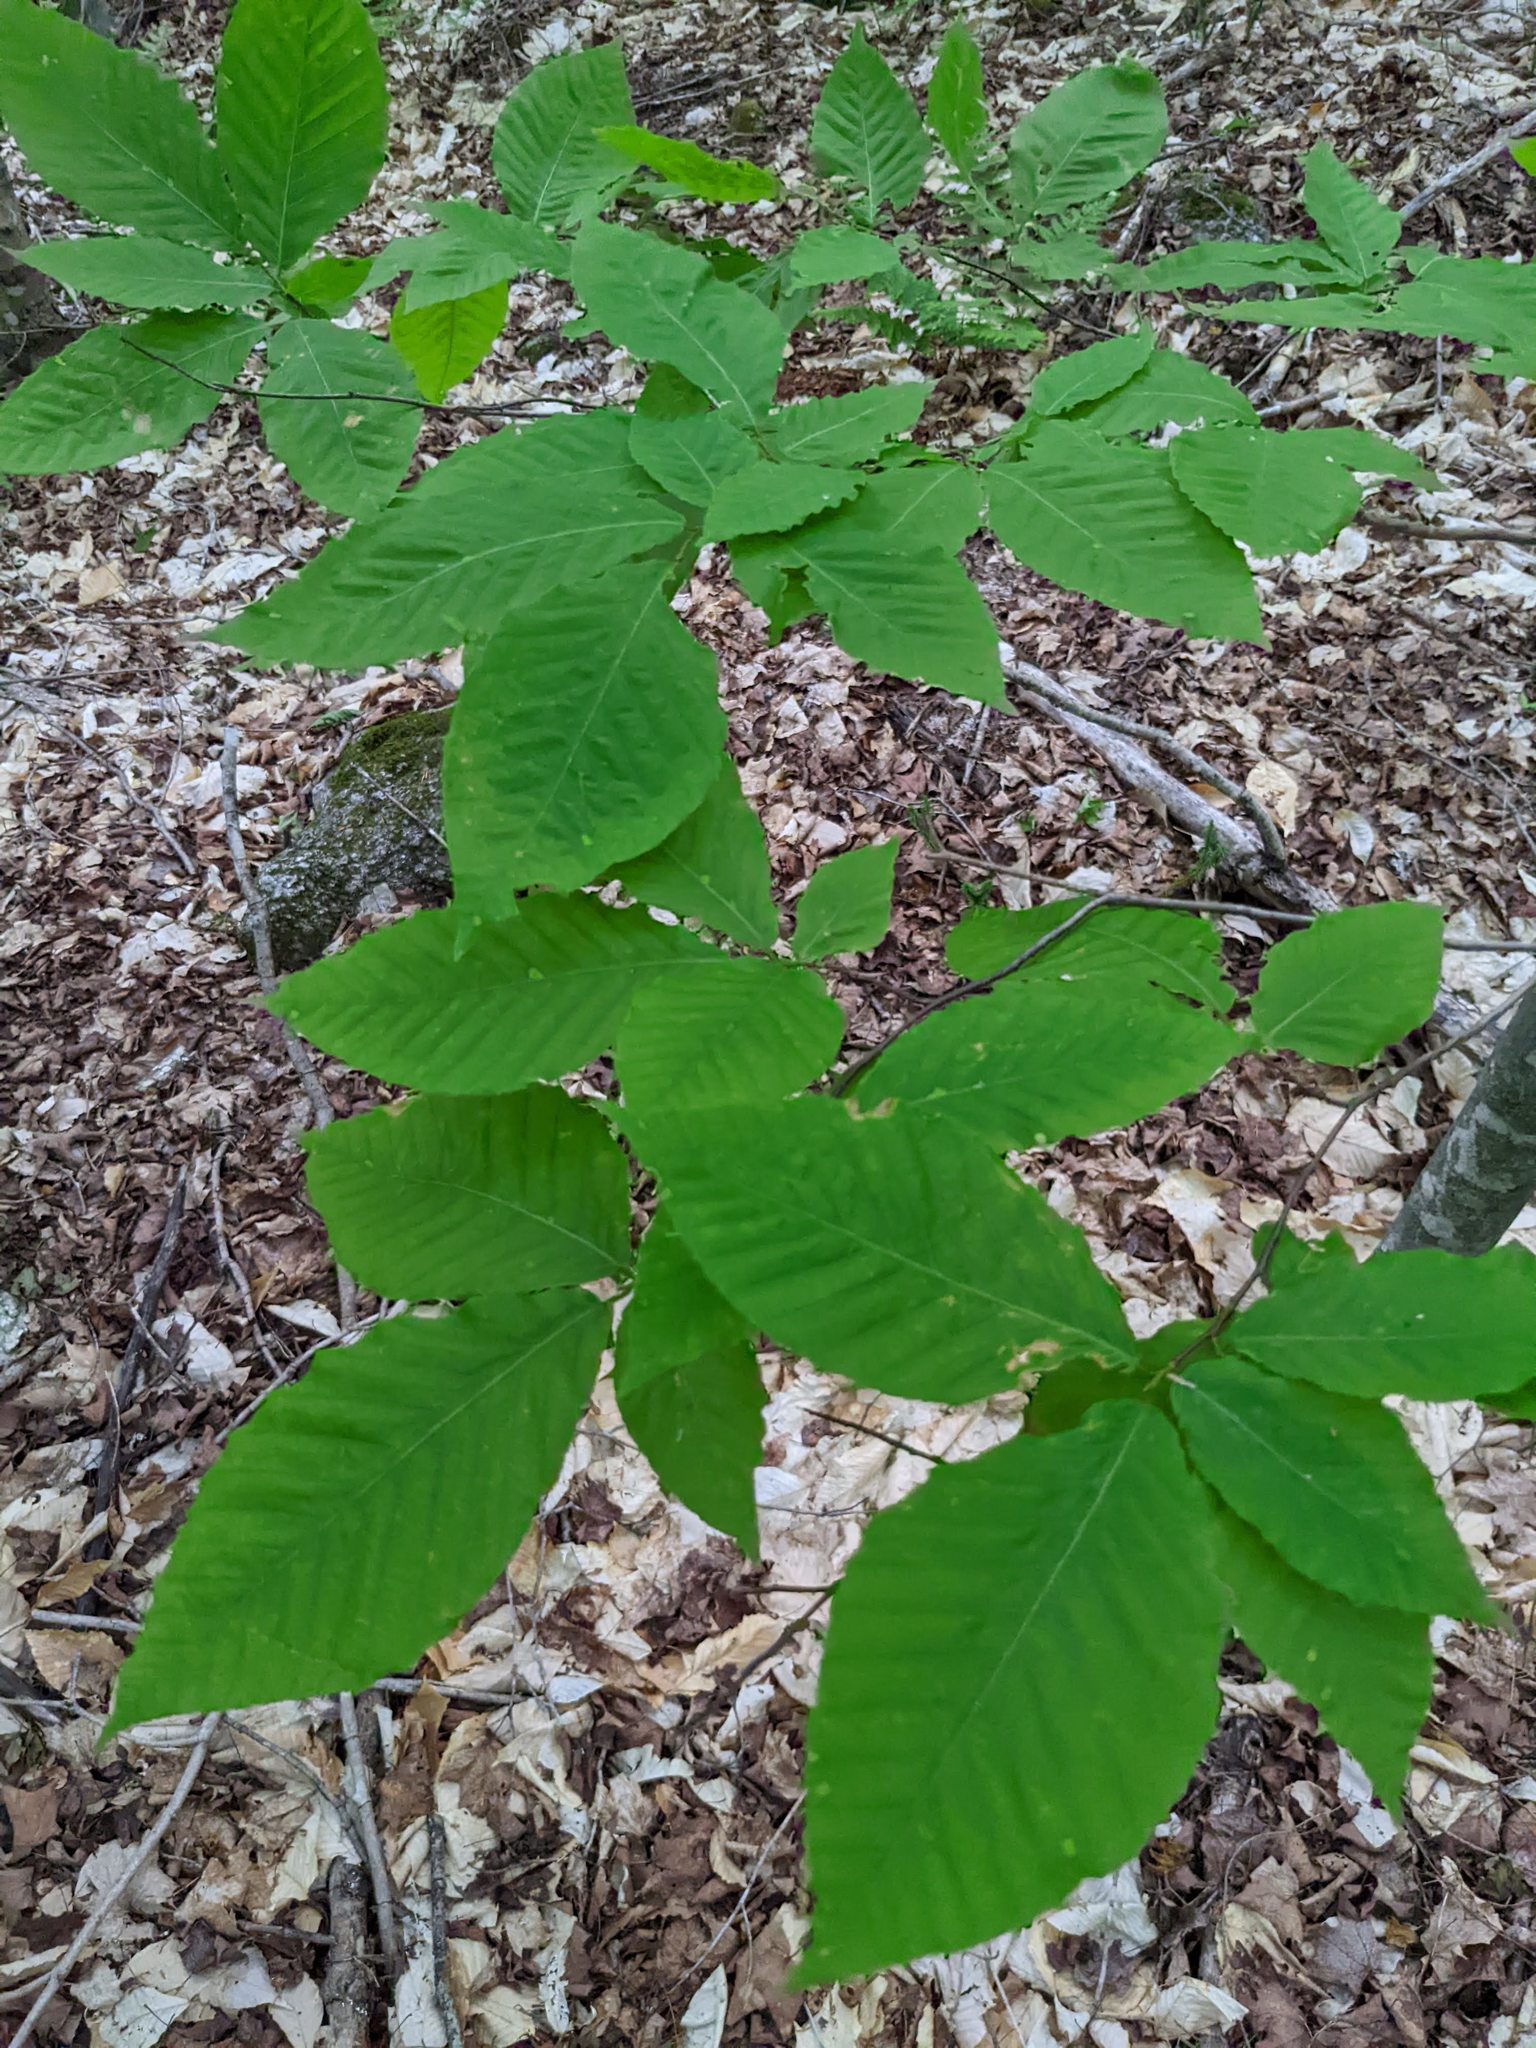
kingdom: Plantae
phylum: Tracheophyta
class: Magnoliopsida
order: Fagales
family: Fagaceae
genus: Fagus
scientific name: Fagus grandifolia
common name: American beech
